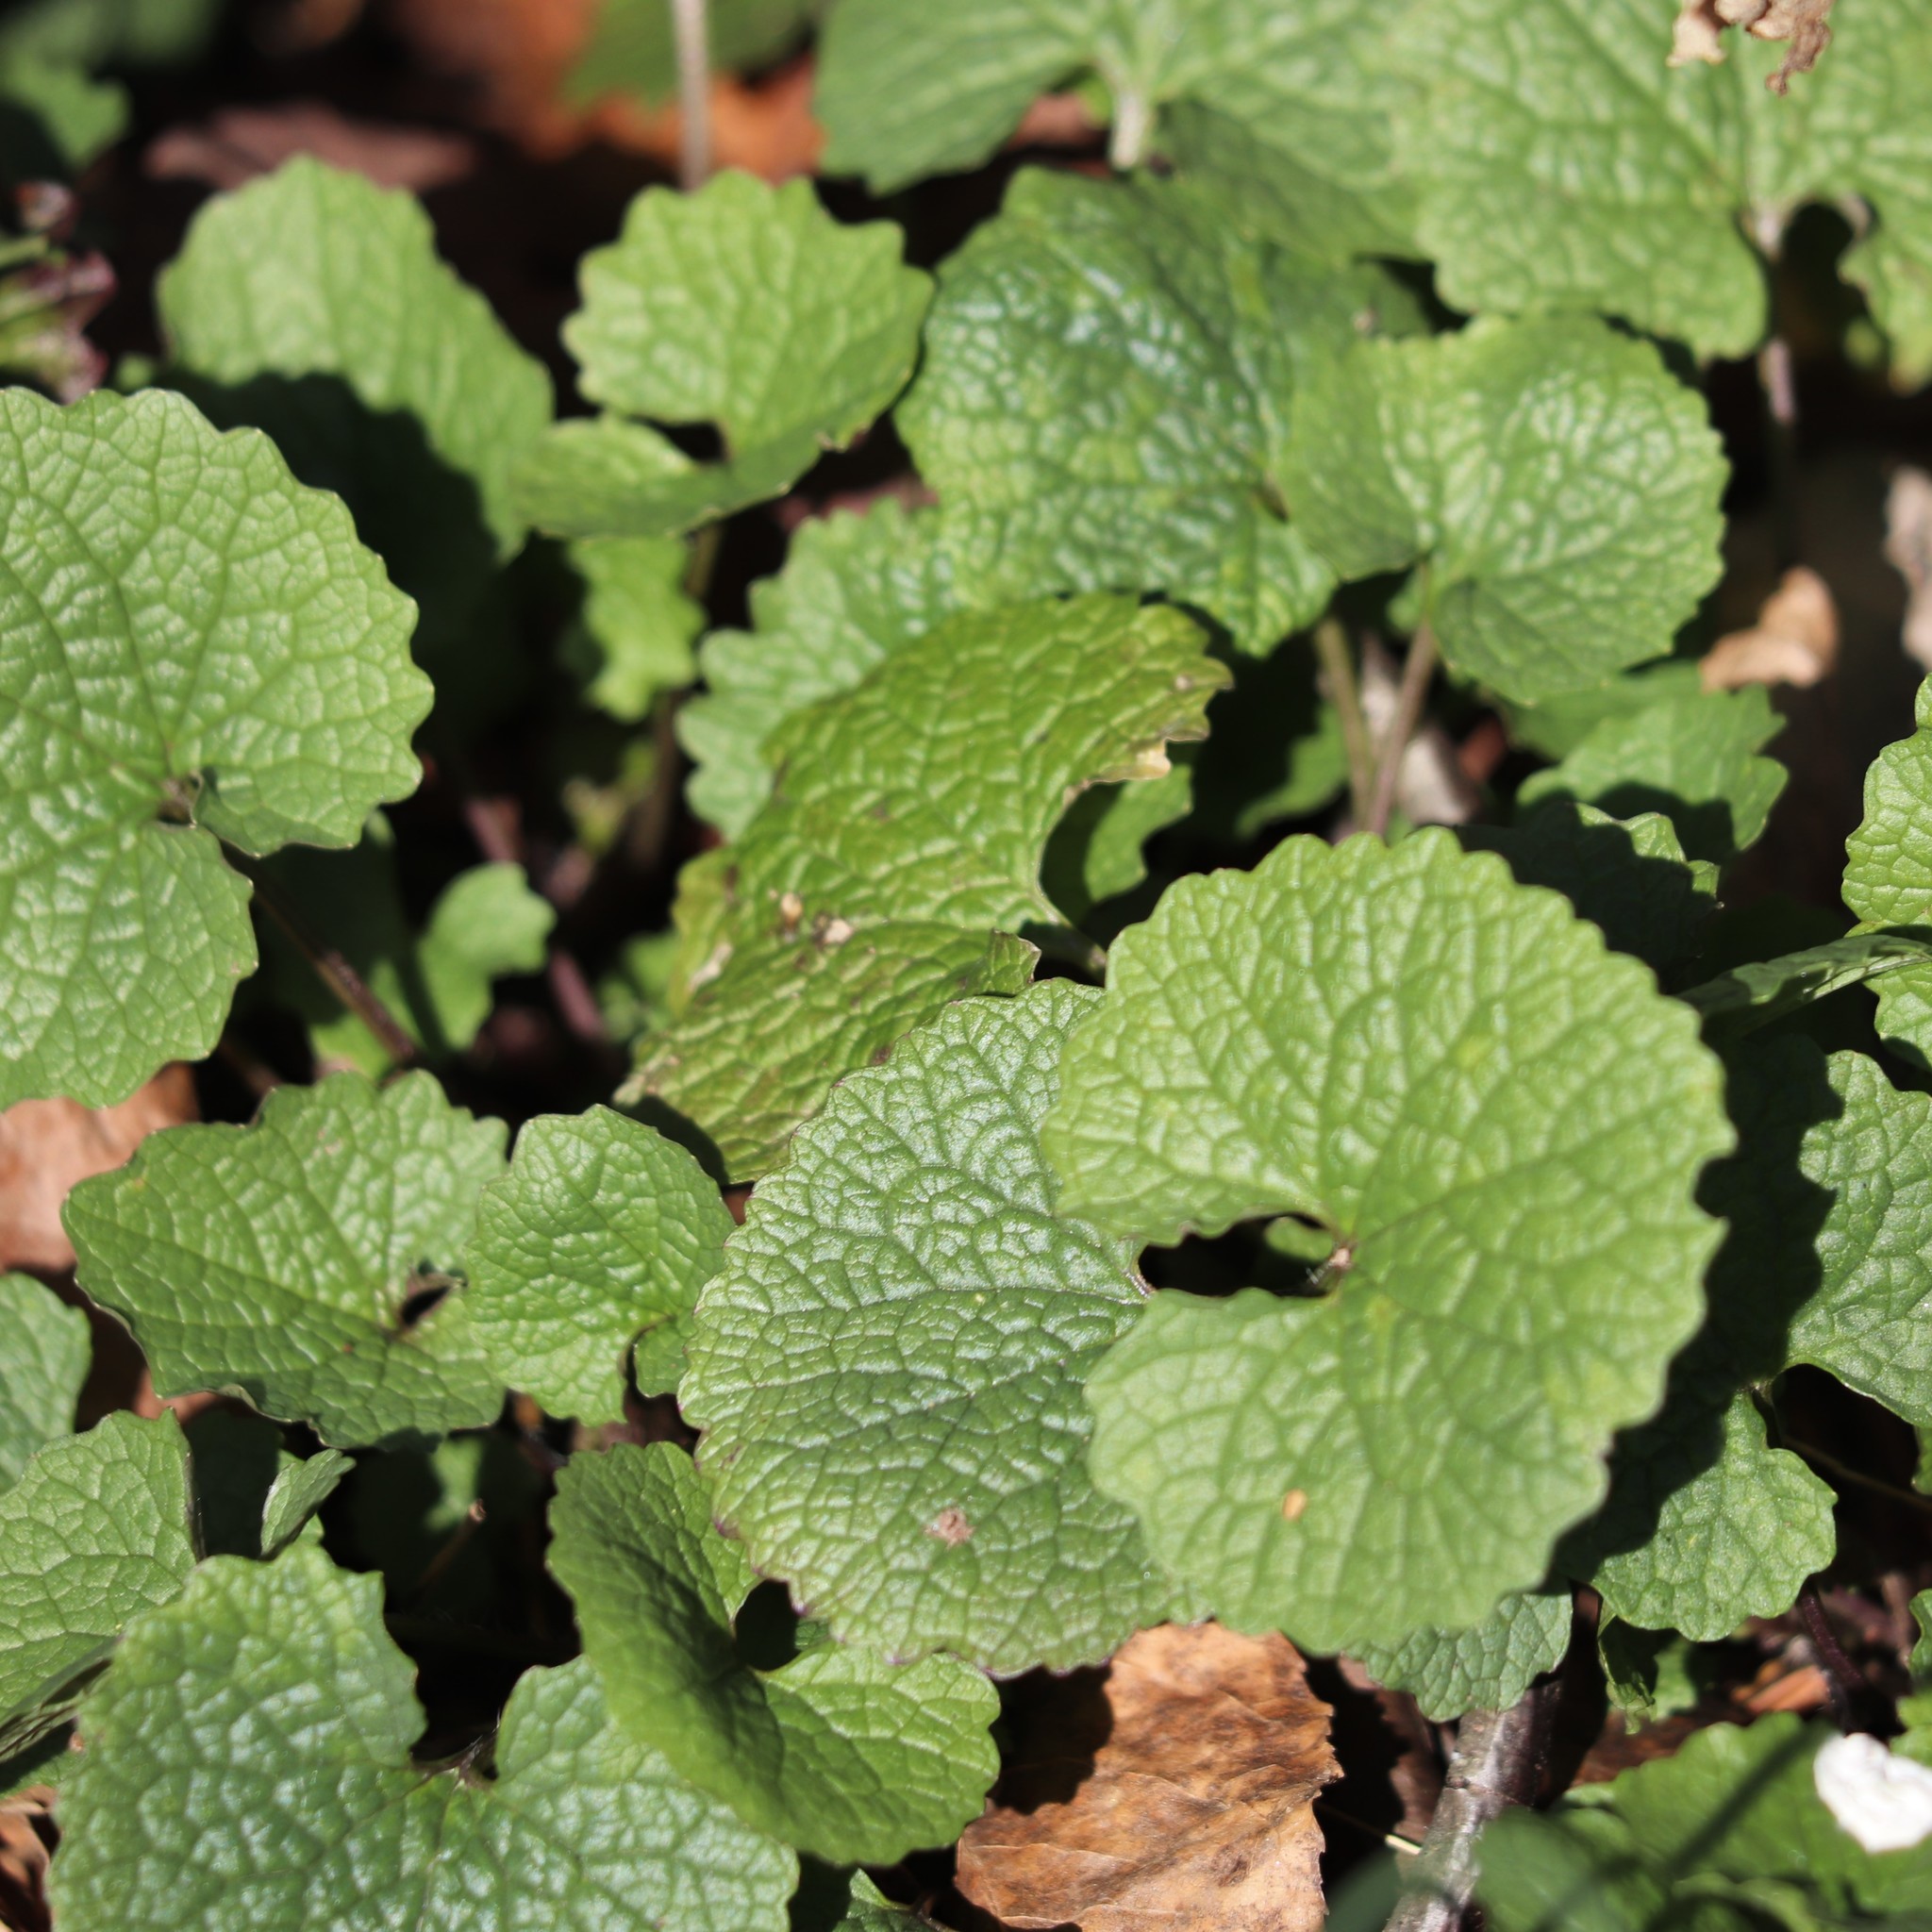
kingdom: Plantae
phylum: Tracheophyta
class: Magnoliopsida
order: Brassicales
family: Brassicaceae
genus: Alliaria
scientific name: Alliaria petiolata
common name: Garlic mustard
